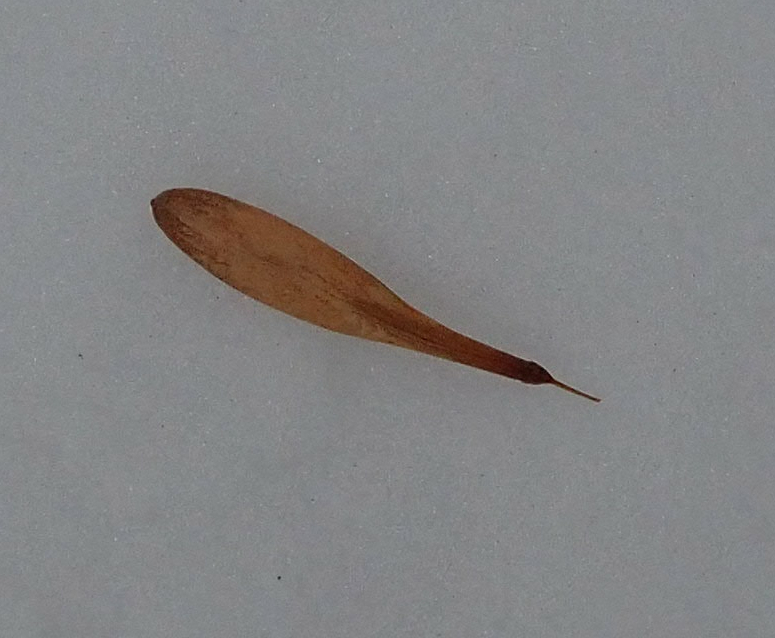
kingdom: Plantae
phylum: Tracheophyta
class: Magnoliopsida
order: Lamiales
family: Oleaceae
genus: Fraxinus
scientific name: Fraxinus pennsylvanica
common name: Green ash
